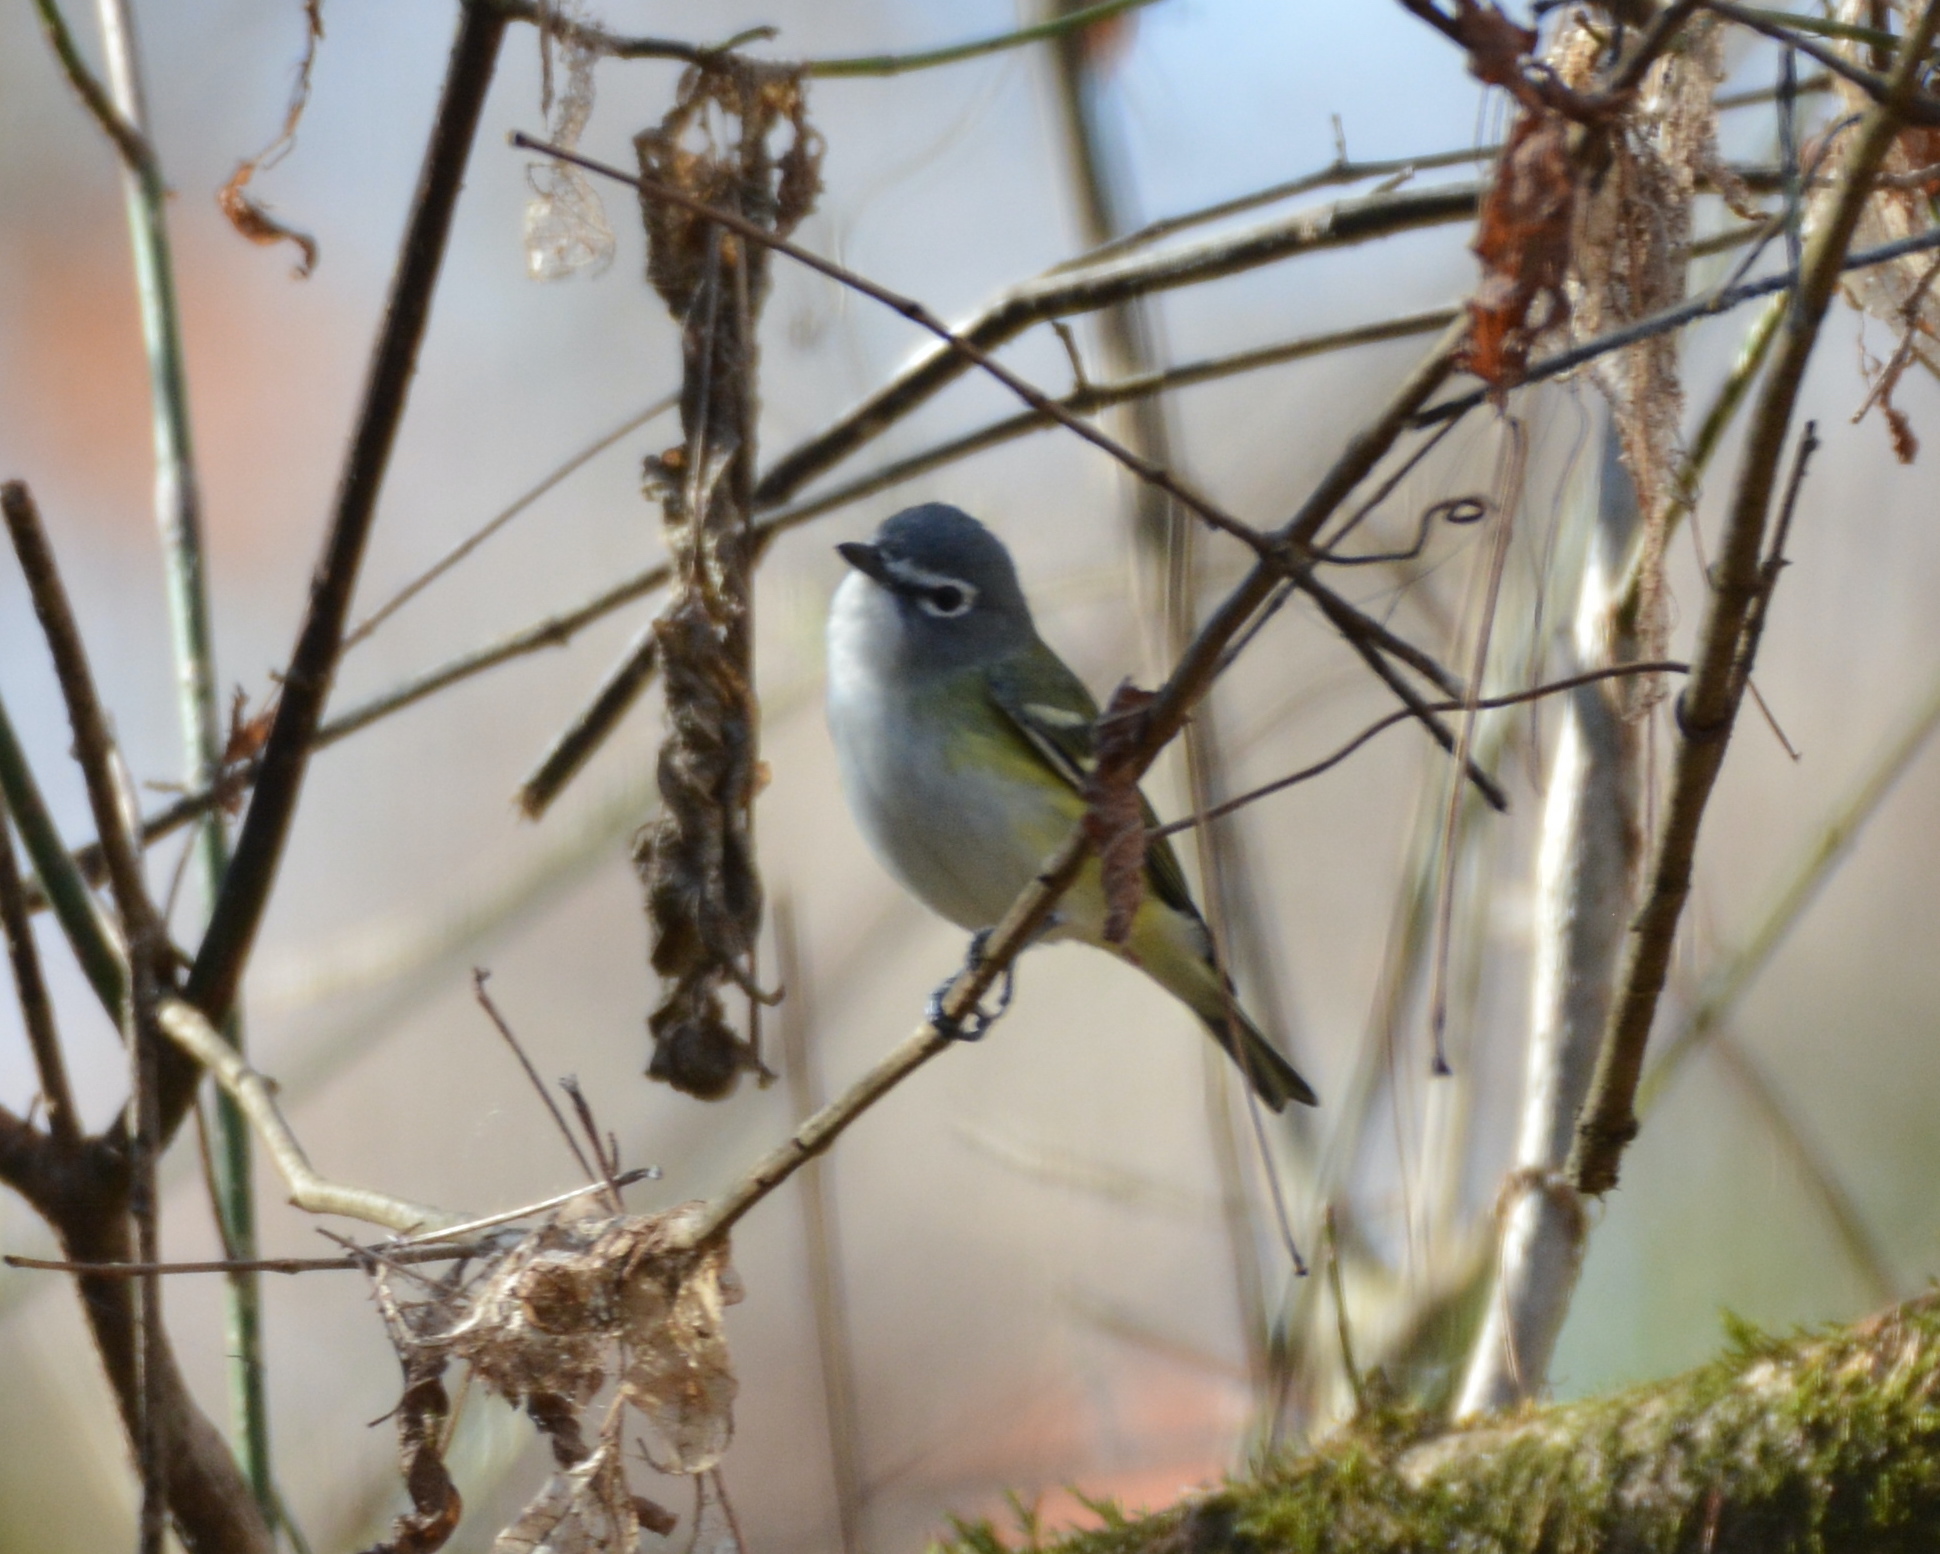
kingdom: Animalia
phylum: Chordata
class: Aves
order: Passeriformes
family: Vireonidae
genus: Vireo
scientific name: Vireo solitarius
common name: Blue-headed vireo
